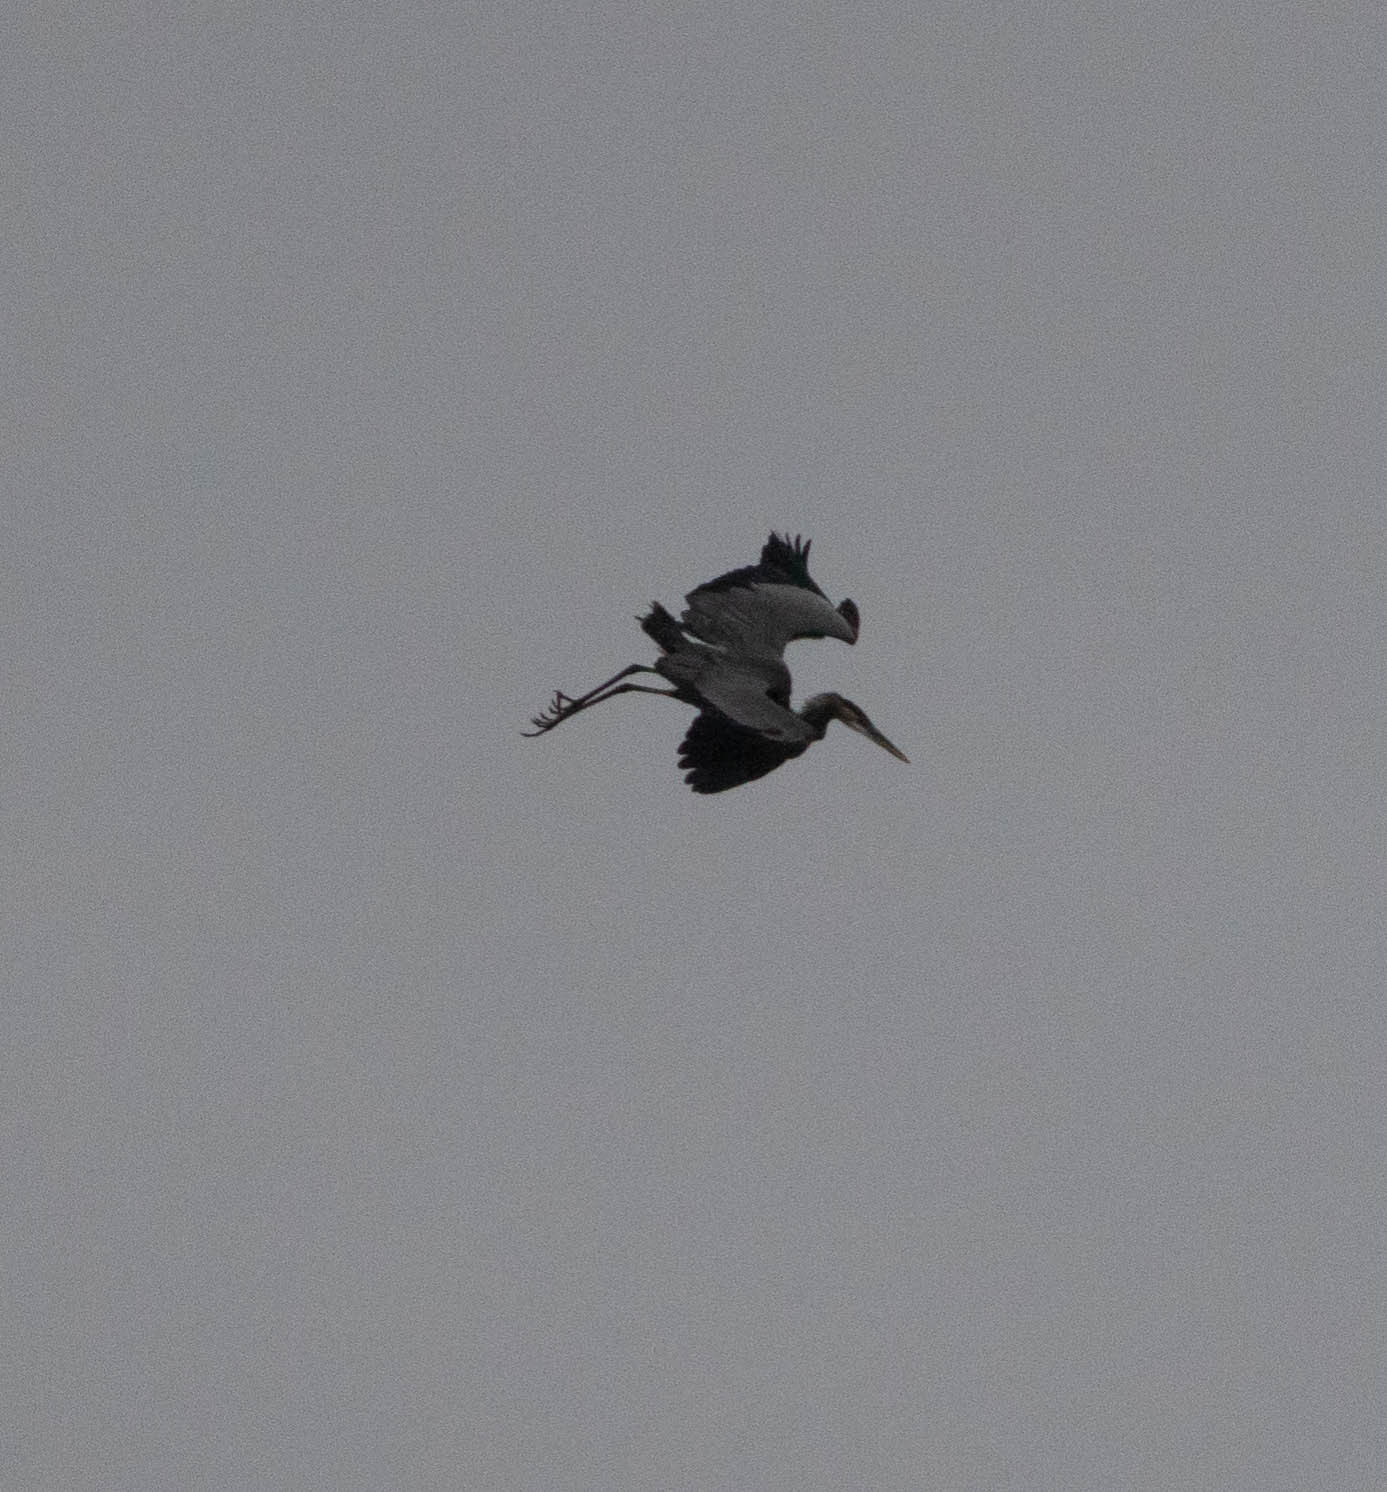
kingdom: Animalia
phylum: Chordata
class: Aves
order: Pelecaniformes
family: Ardeidae
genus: Ardea
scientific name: Ardea herodias
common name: Great blue heron
